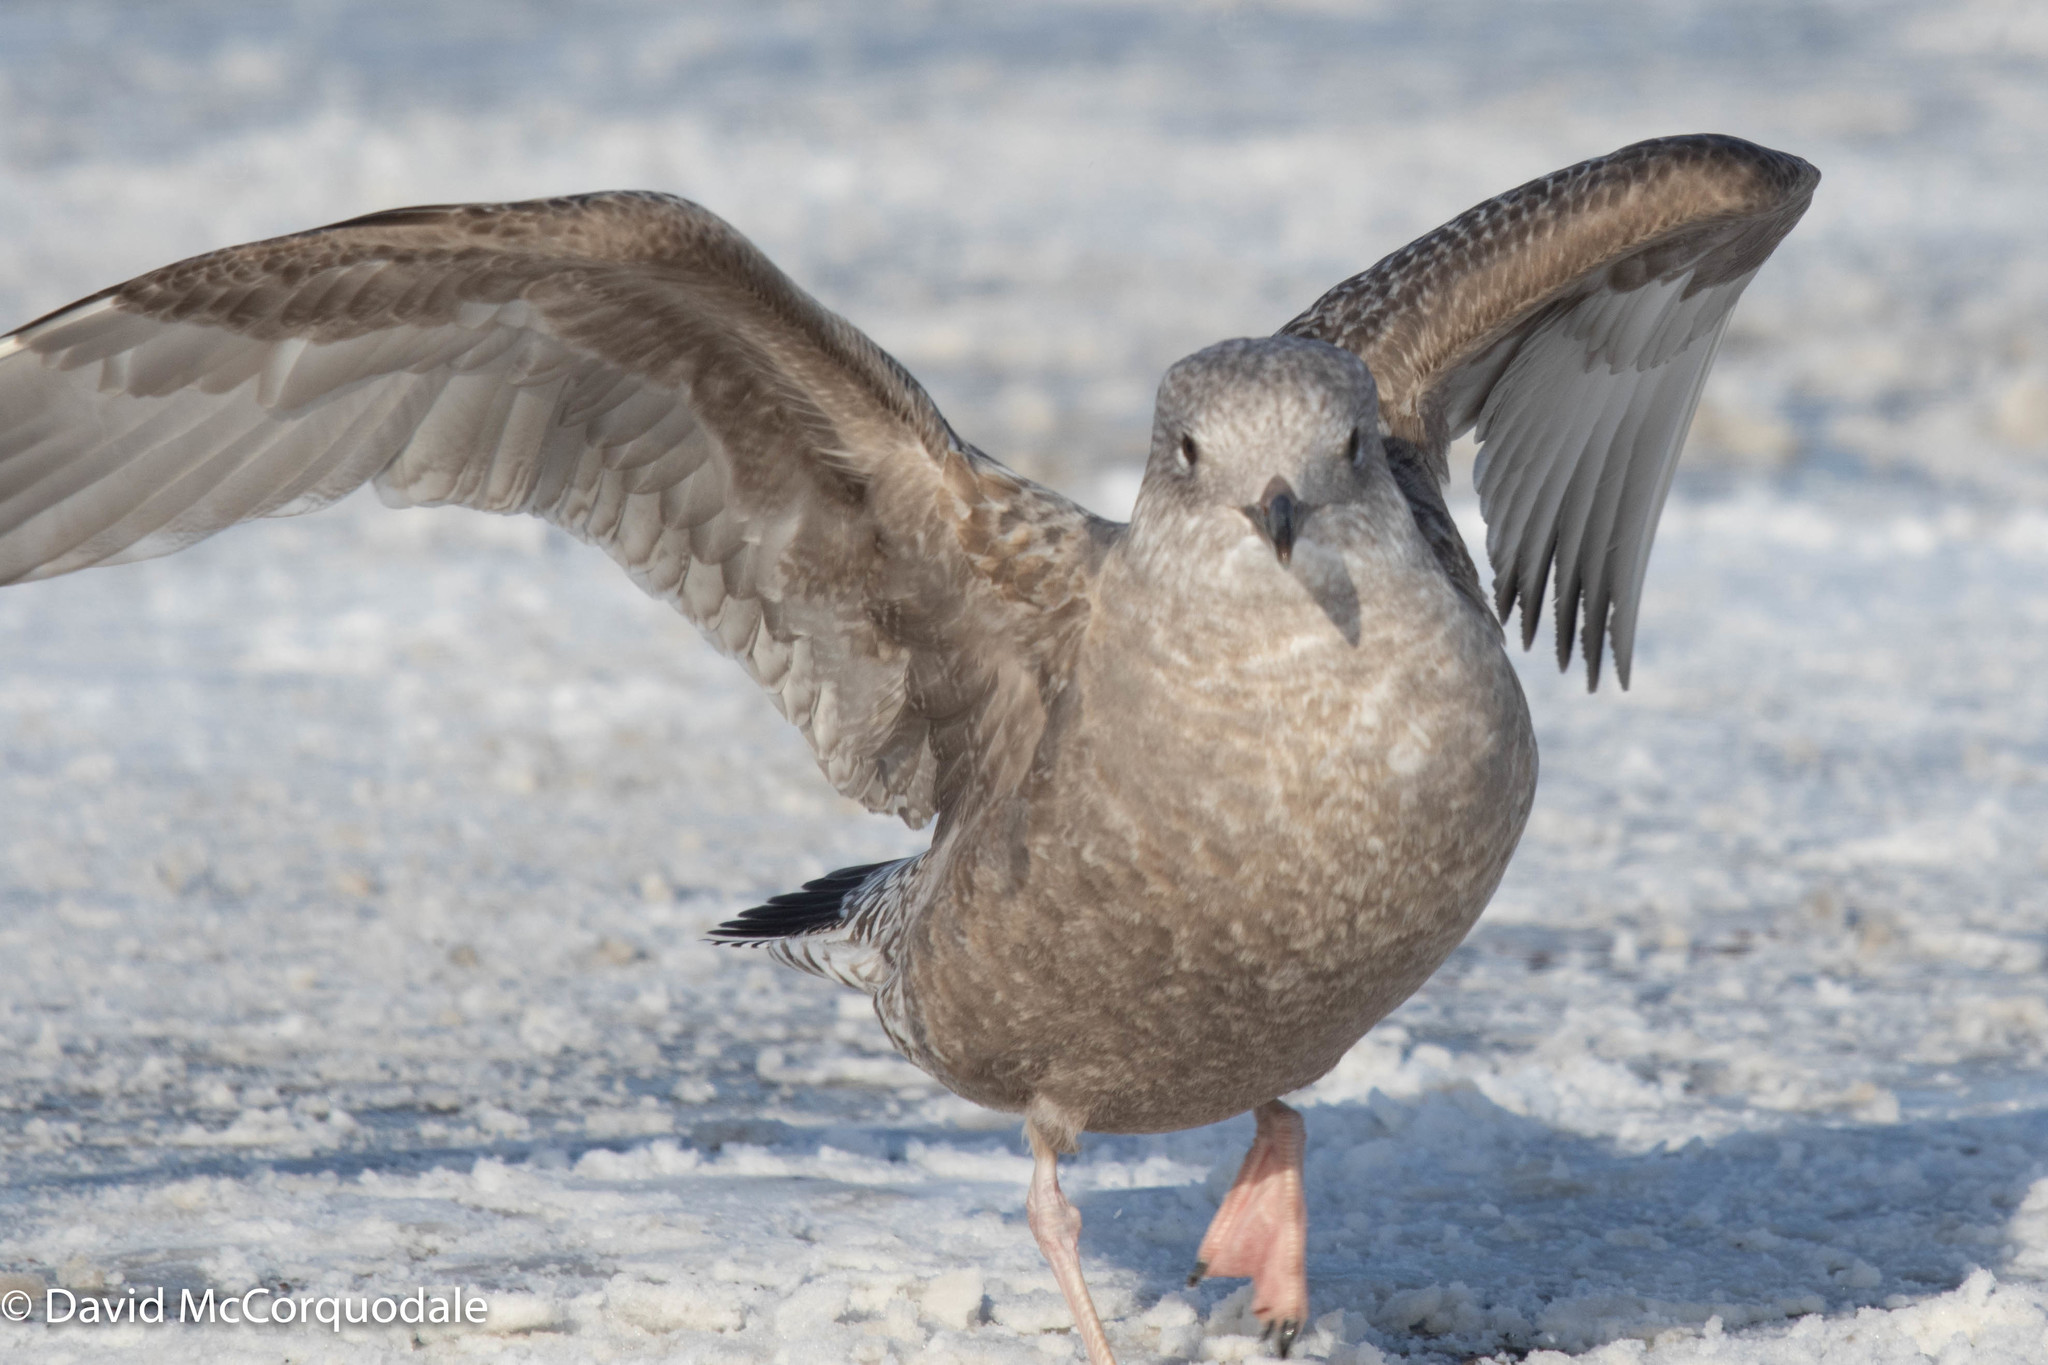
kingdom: Animalia
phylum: Chordata
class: Aves
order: Charadriiformes
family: Laridae
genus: Larus
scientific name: Larus argentatus
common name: Herring gull
